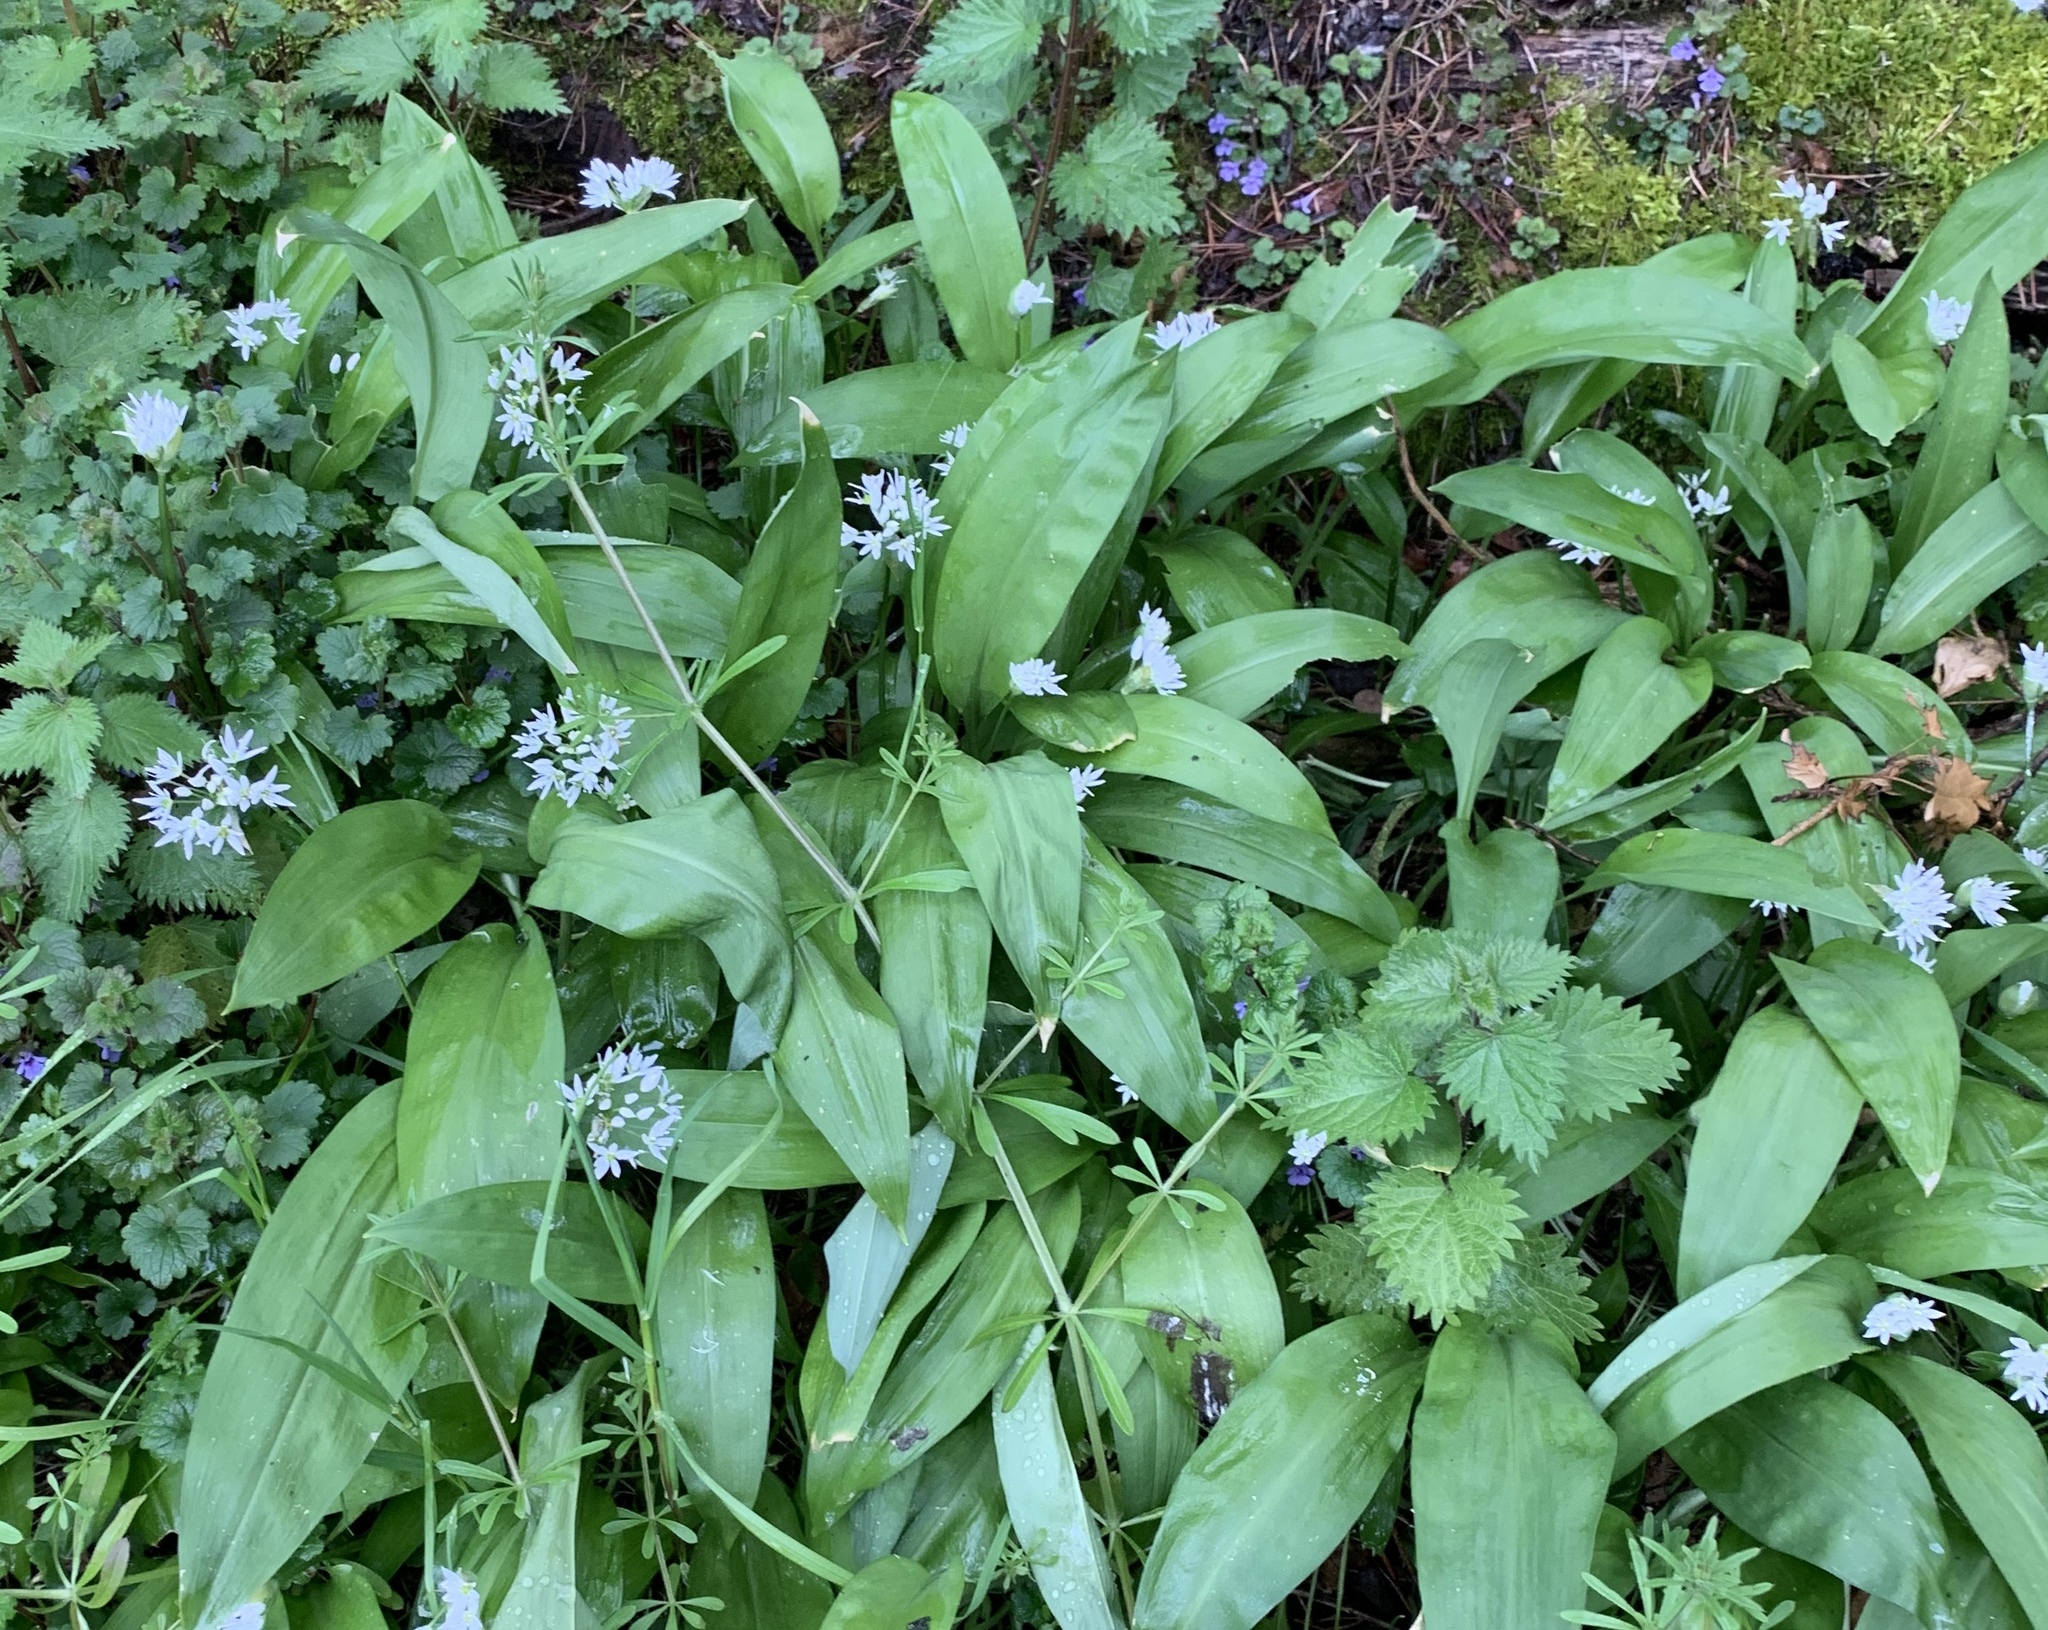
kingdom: Plantae
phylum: Tracheophyta
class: Liliopsida
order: Asparagales
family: Amaryllidaceae
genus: Allium
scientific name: Allium ursinum
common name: Ramsons
